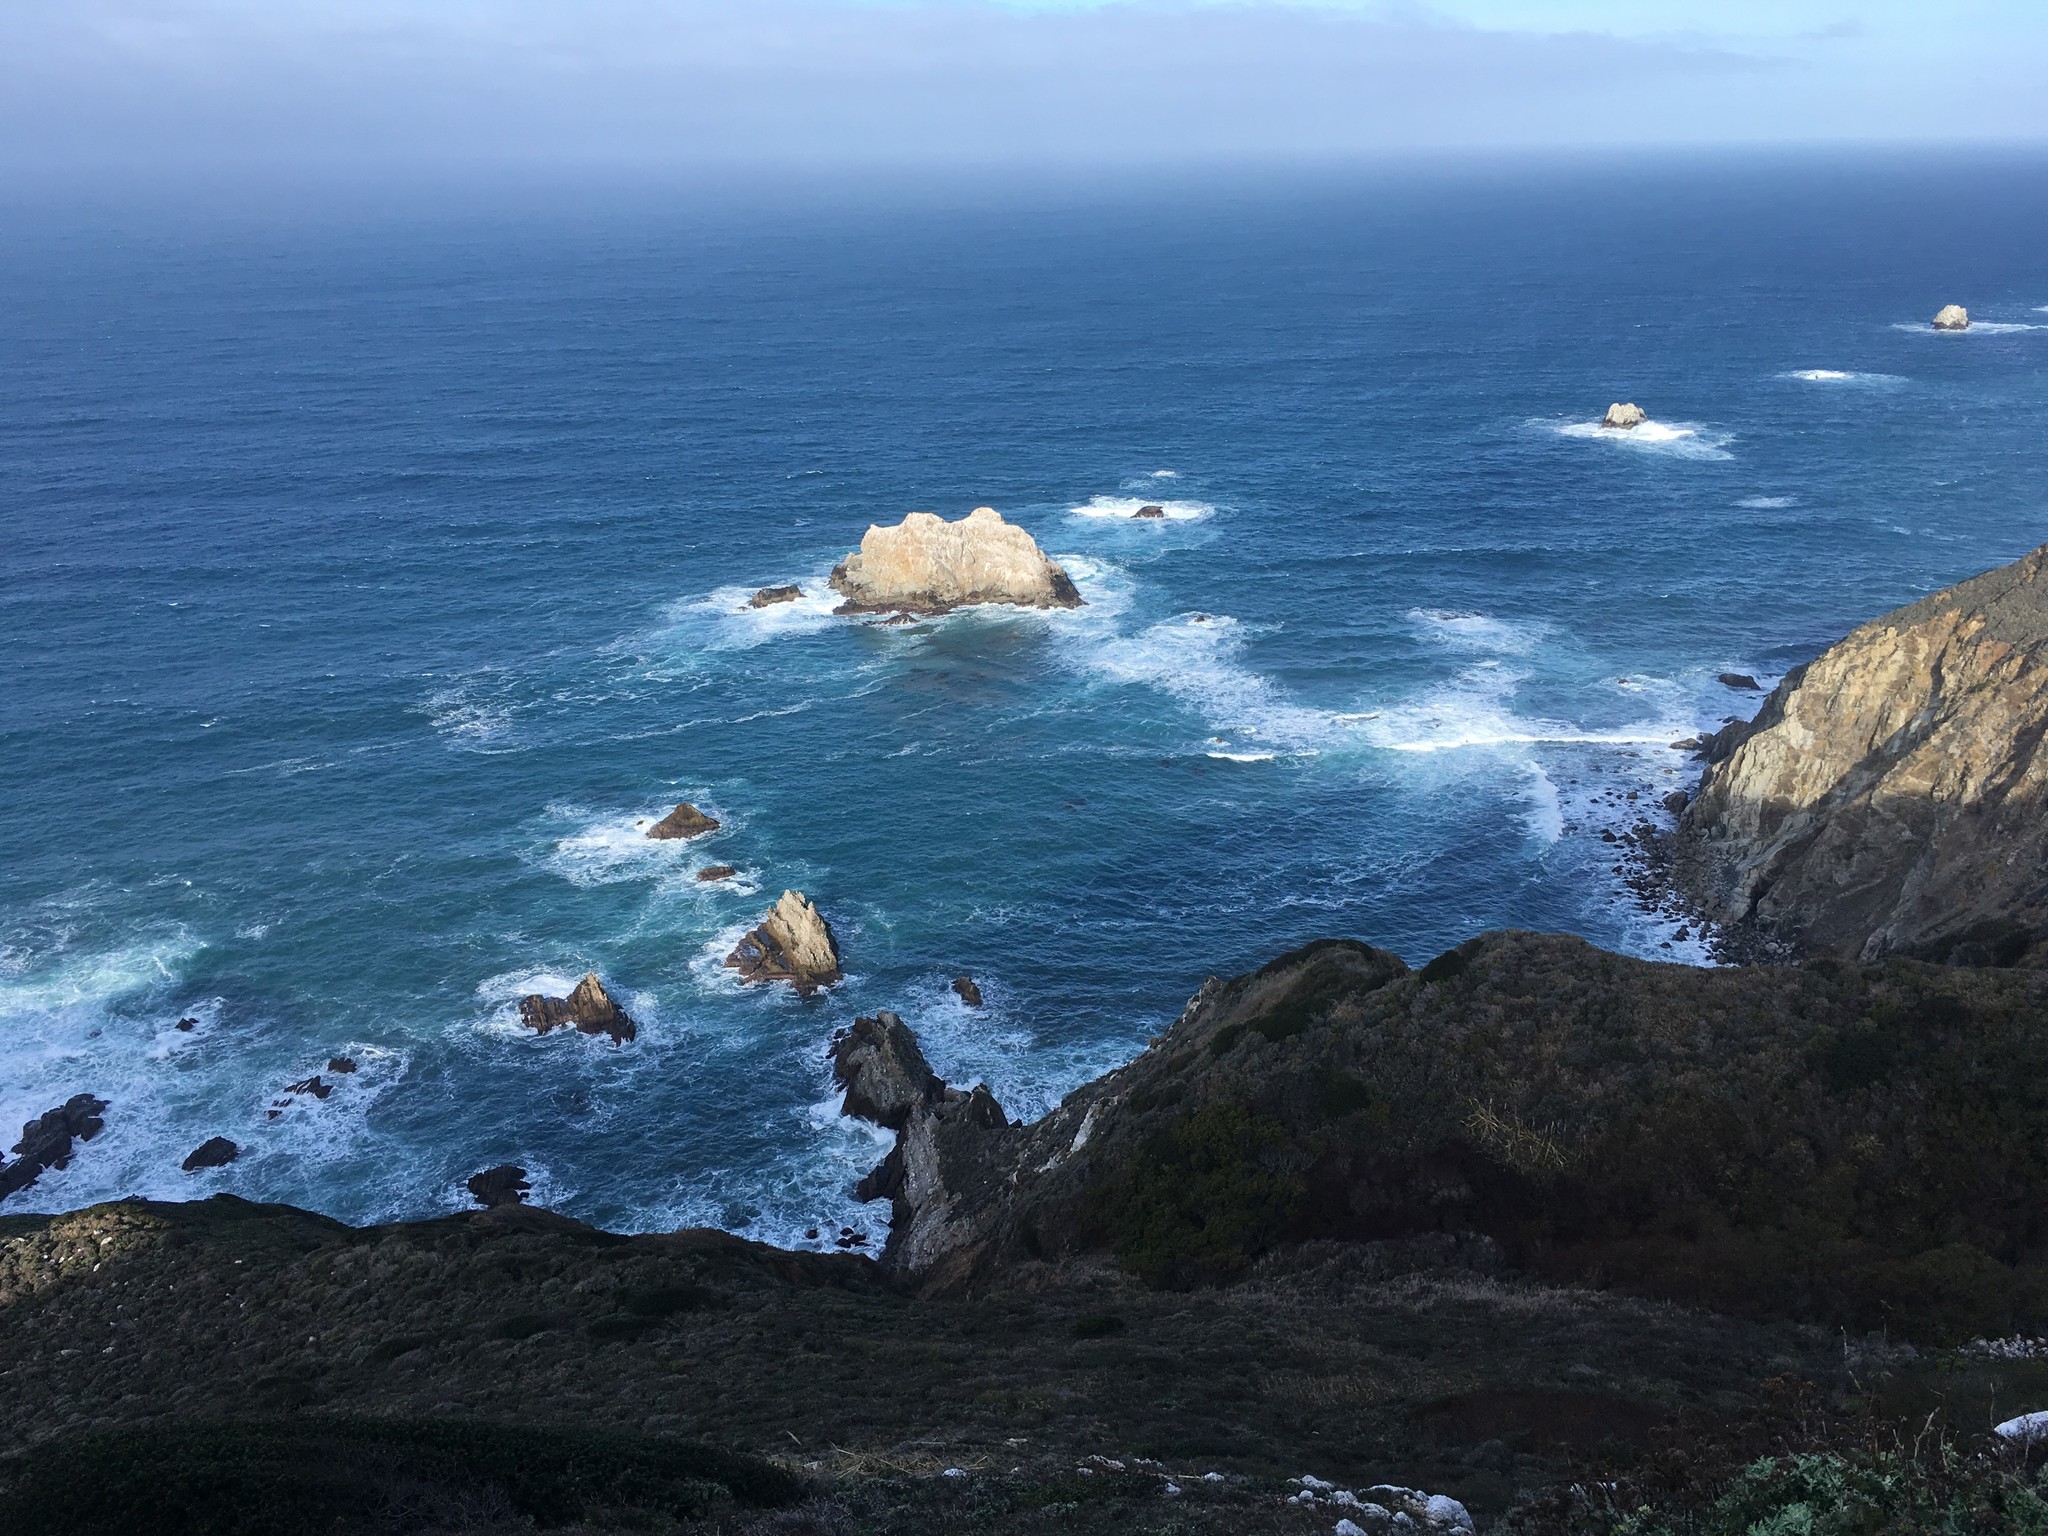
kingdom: Animalia
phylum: Chordata
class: Aves
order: Charadriiformes
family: Alcidae
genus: Uria
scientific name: Uria aalge
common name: Common murre
